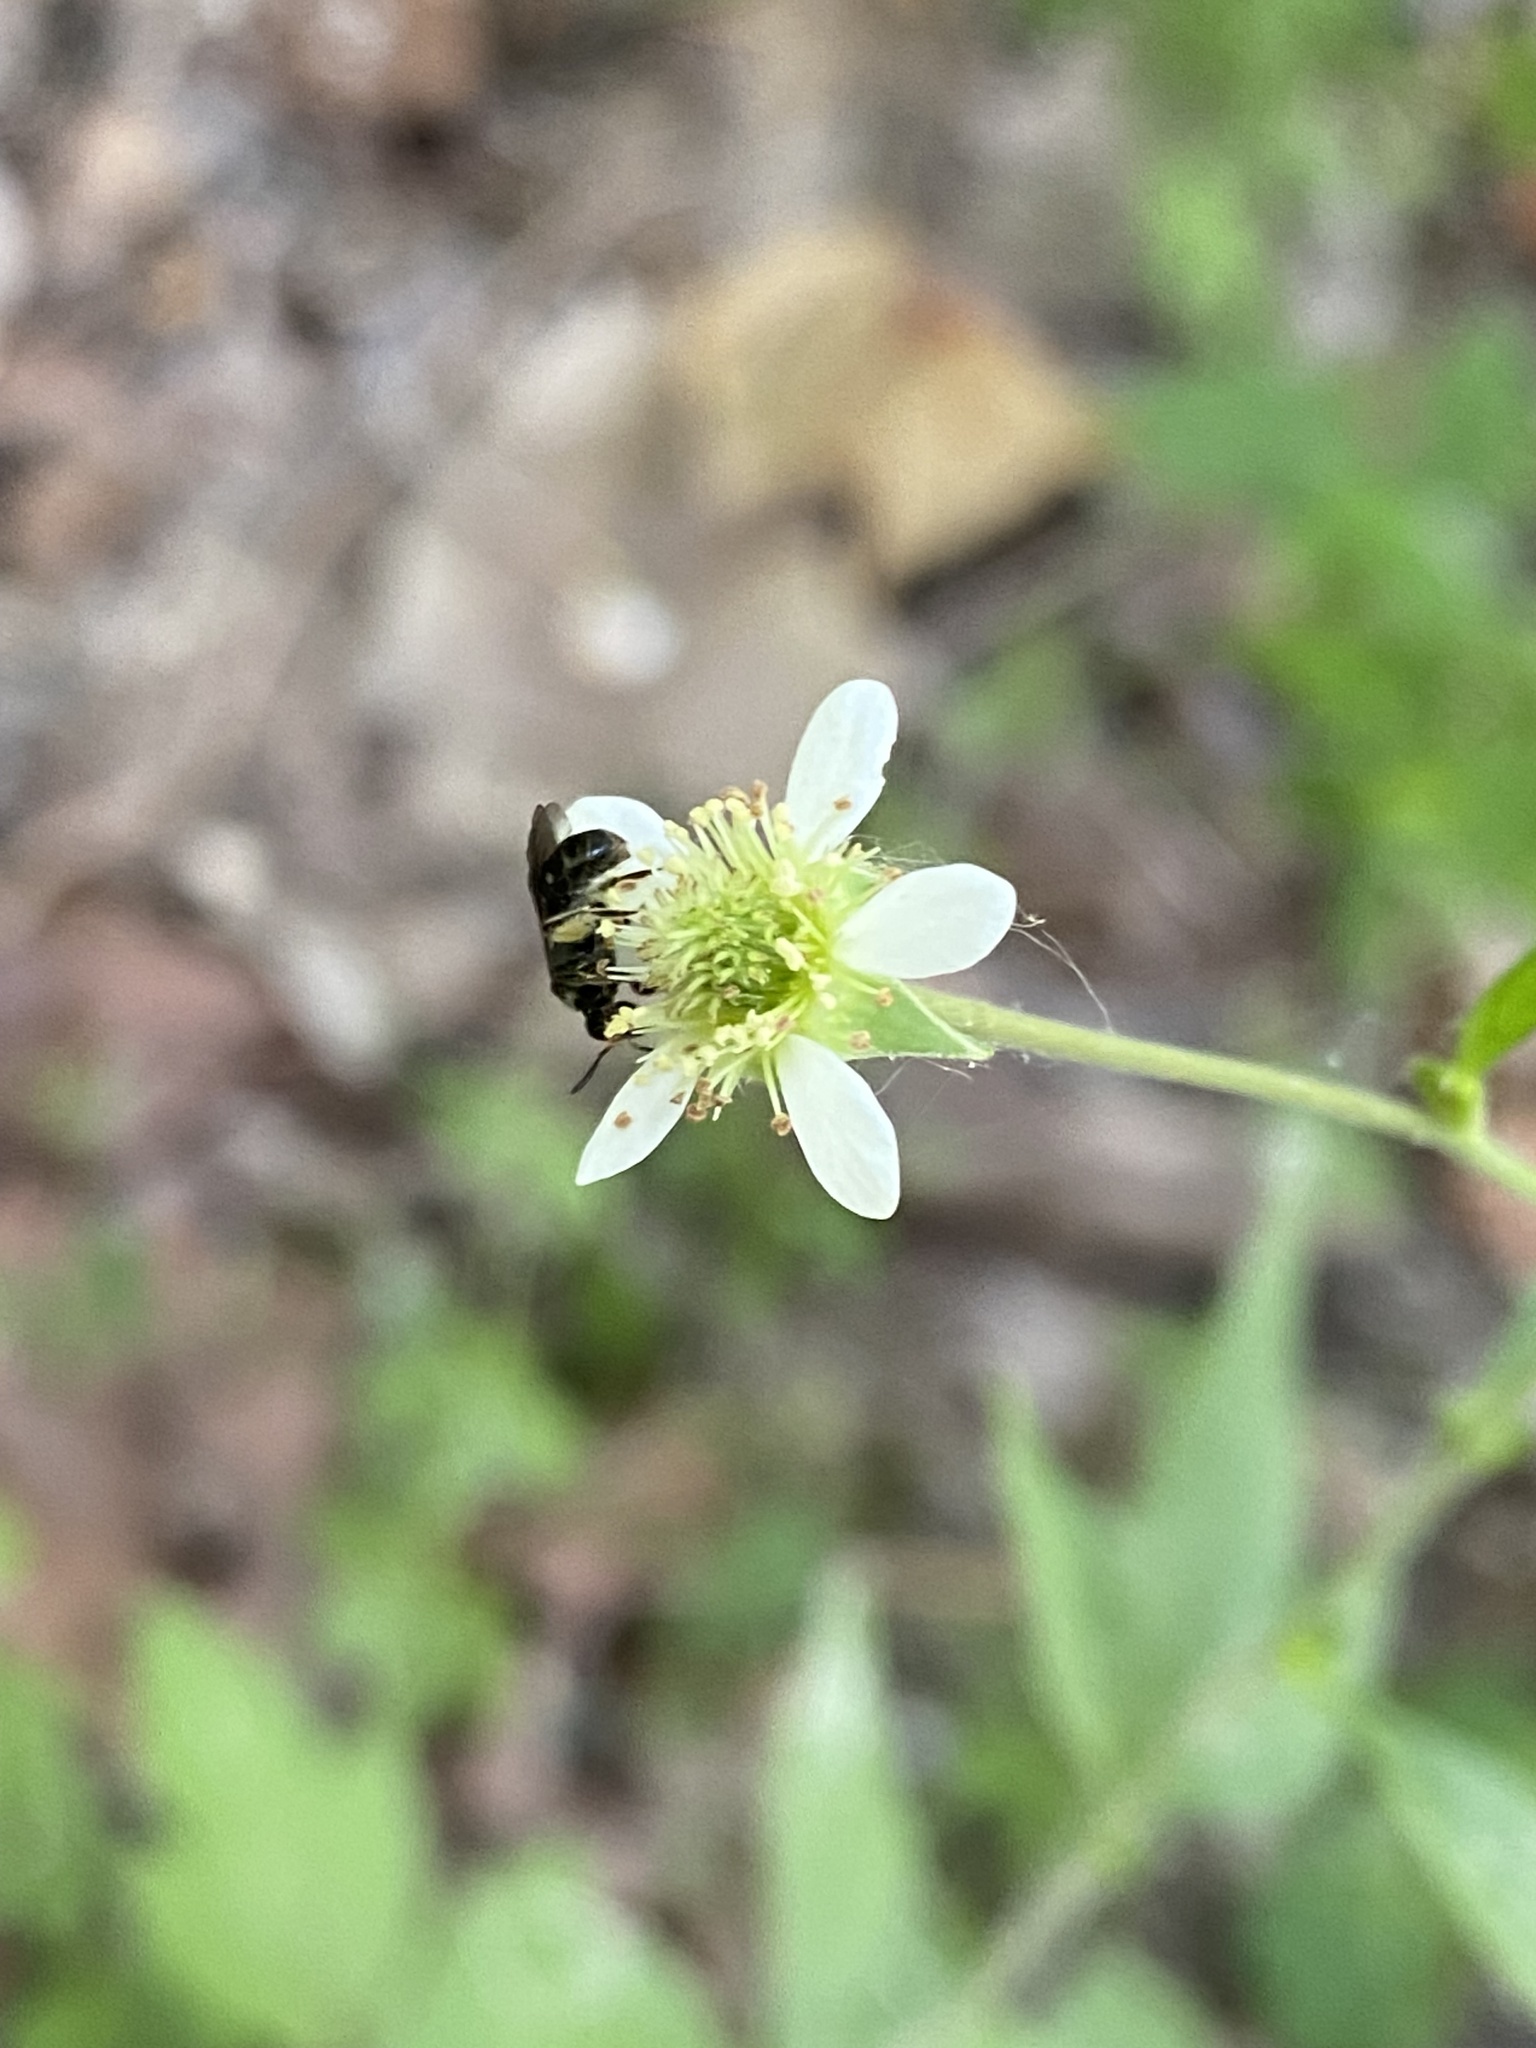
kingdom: Plantae
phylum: Tracheophyta
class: Magnoliopsida
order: Rosales
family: Rosaceae
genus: Geum
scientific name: Geum canadense
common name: White avens
